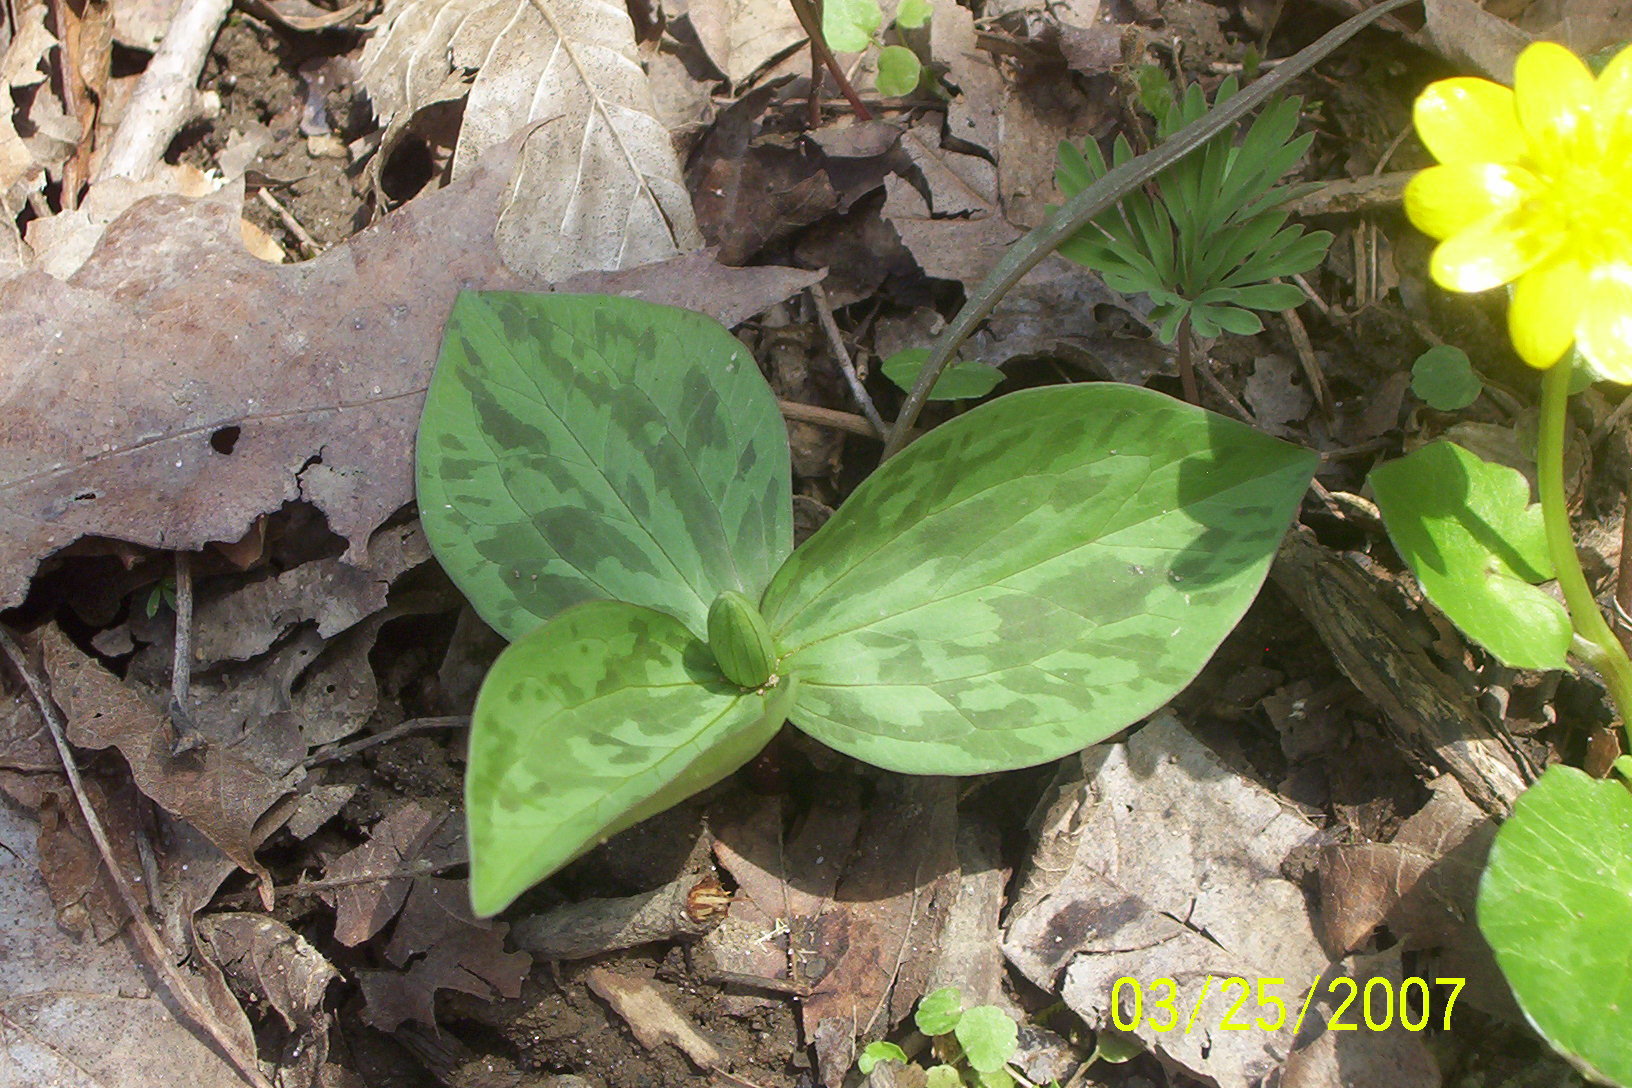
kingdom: Plantae
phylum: Tracheophyta
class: Liliopsida
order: Liliales
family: Melanthiaceae
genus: Trillium
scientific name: Trillium sessile
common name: Sessile trillium
